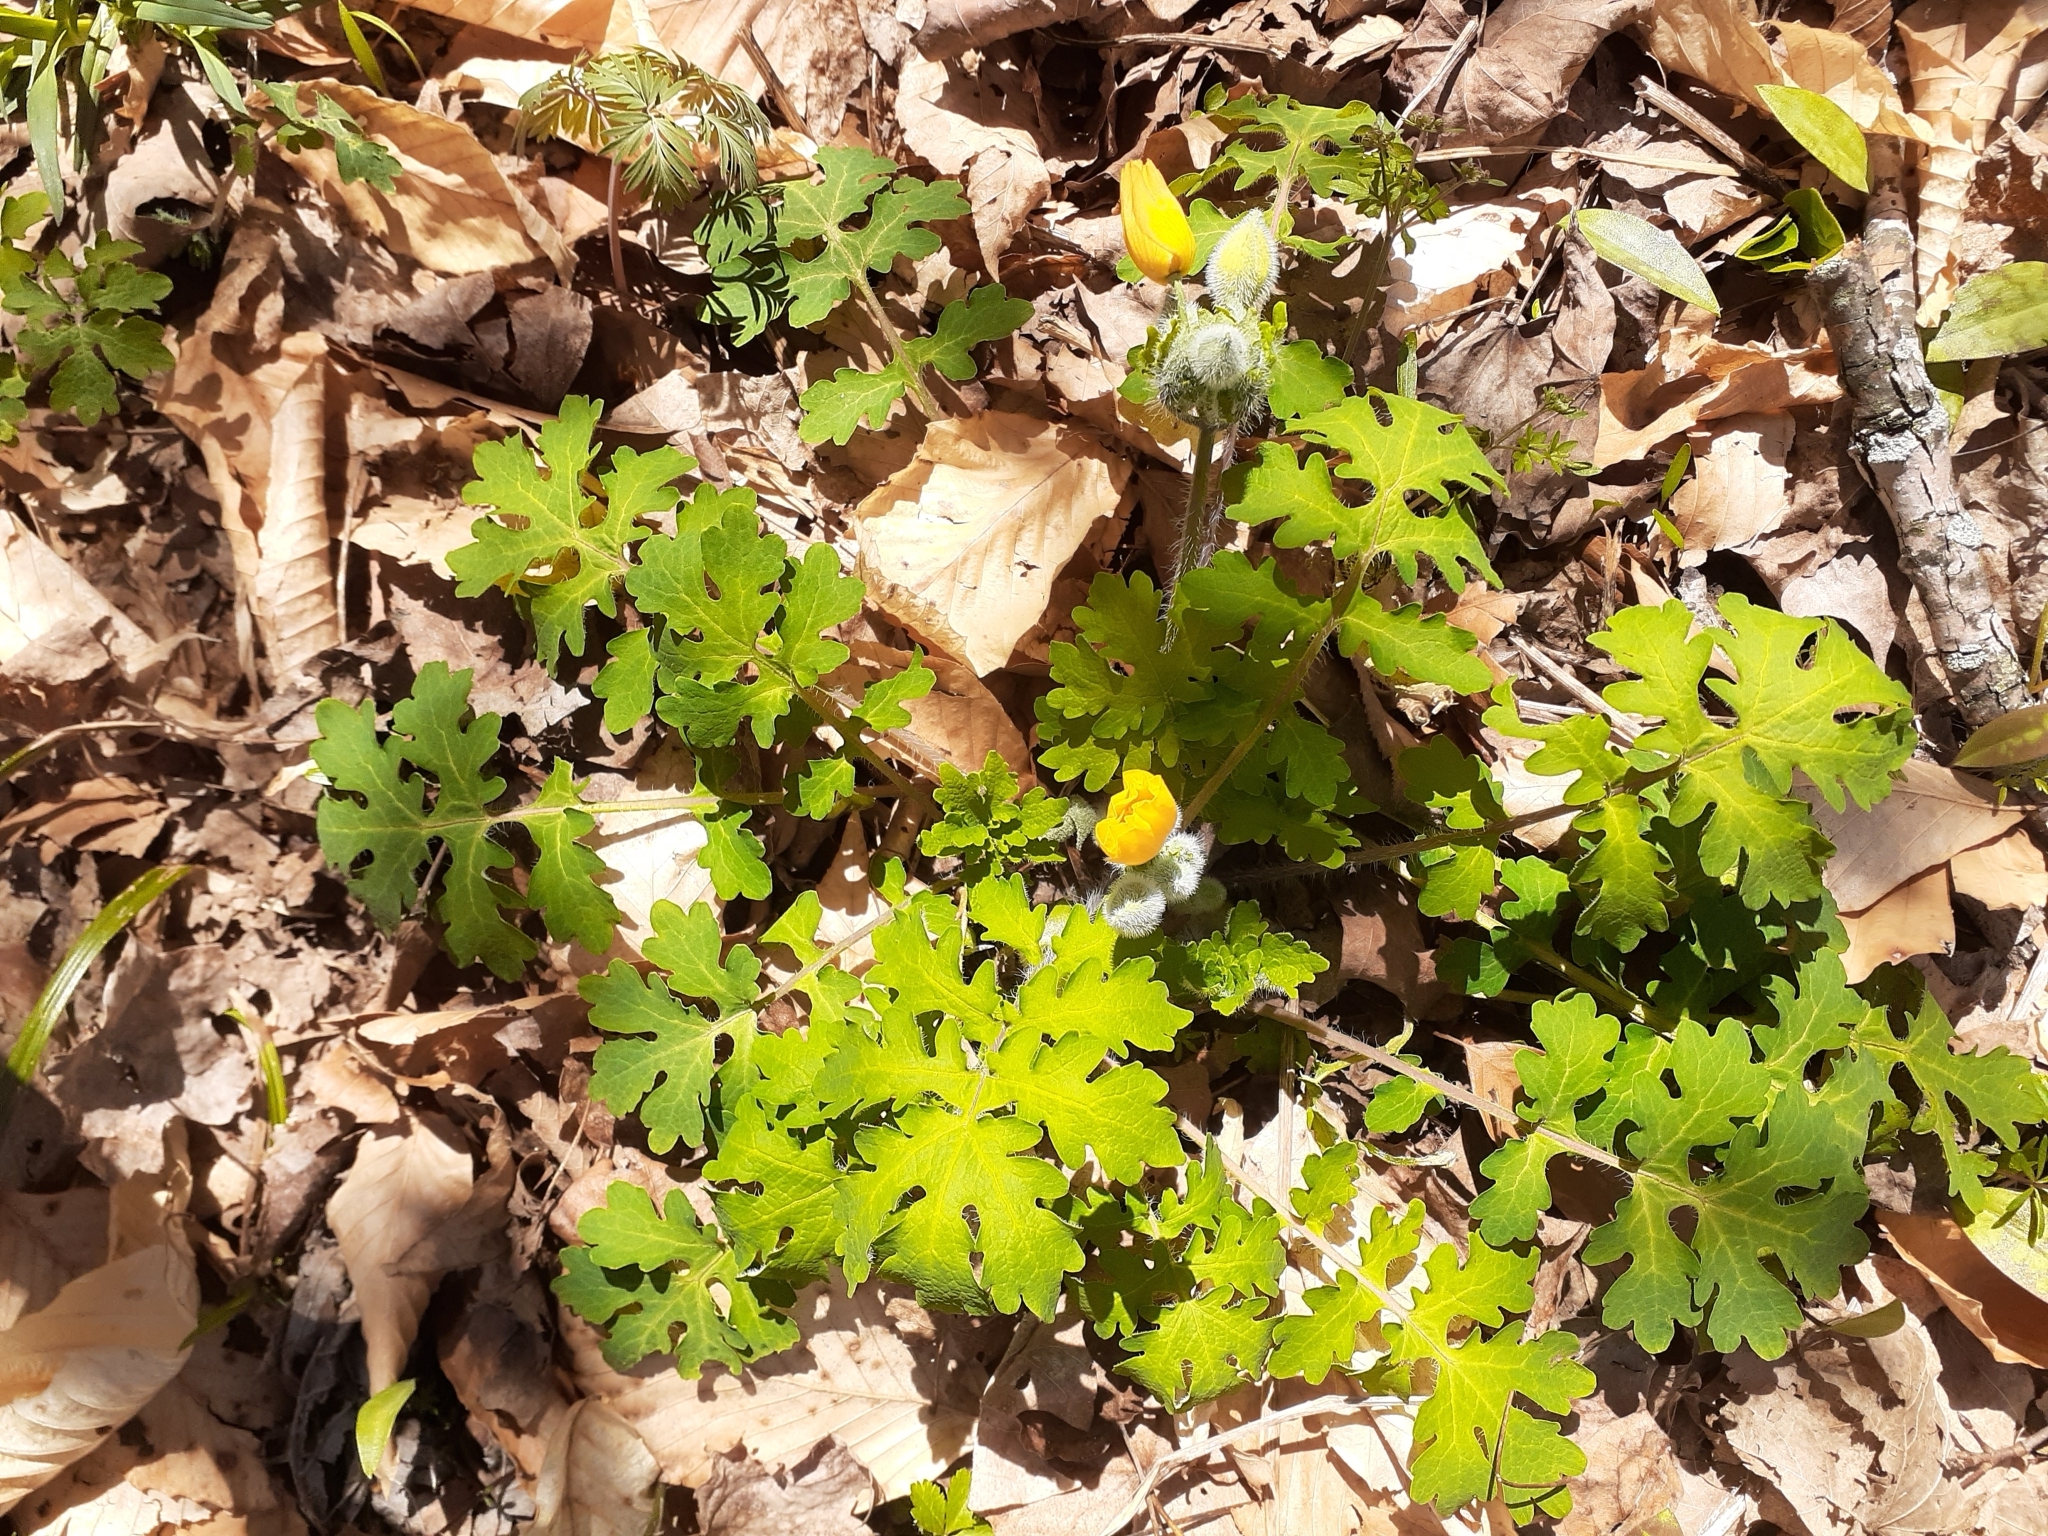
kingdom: Plantae
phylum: Tracheophyta
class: Magnoliopsida
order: Ranunculales
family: Papaveraceae
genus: Stylophorum
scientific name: Stylophorum diphyllum
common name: Celandine poppy
